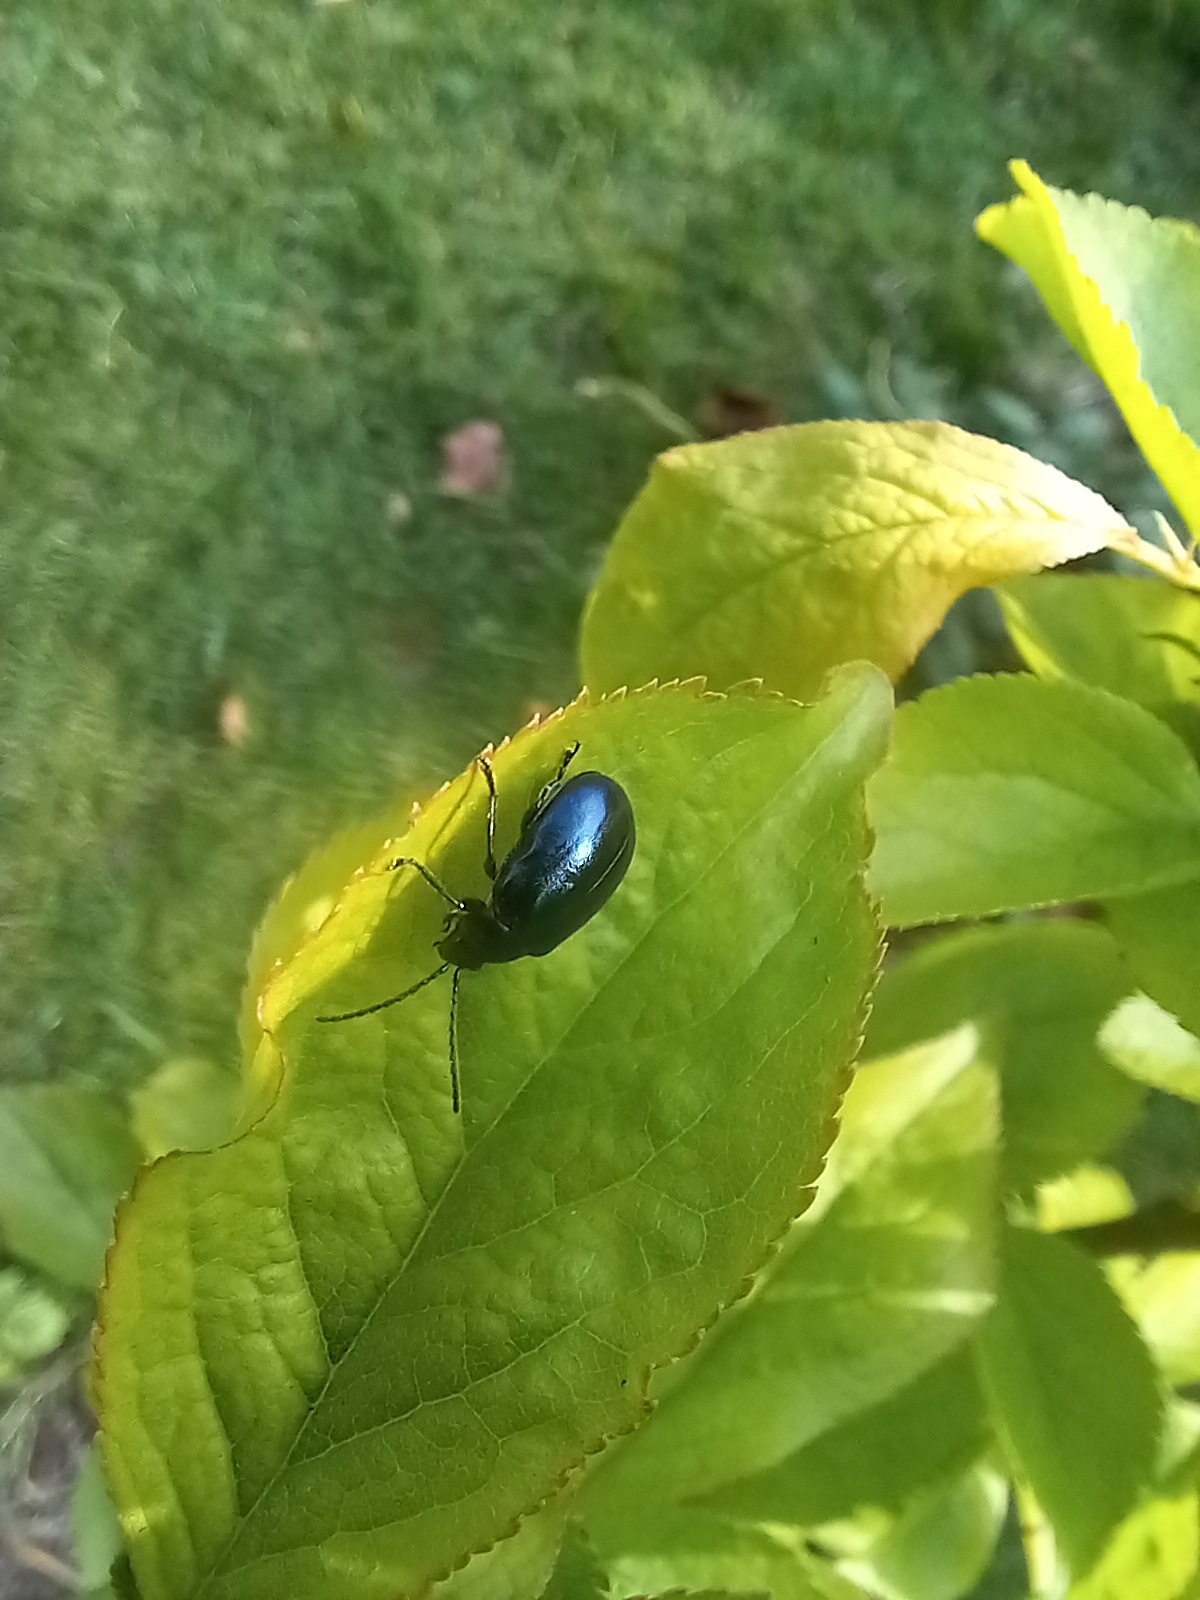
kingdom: Animalia
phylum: Arthropoda
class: Insecta
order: Coleoptera
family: Chrysomelidae
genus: Agelastica
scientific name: Agelastica alni
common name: Alder leaf beetle
